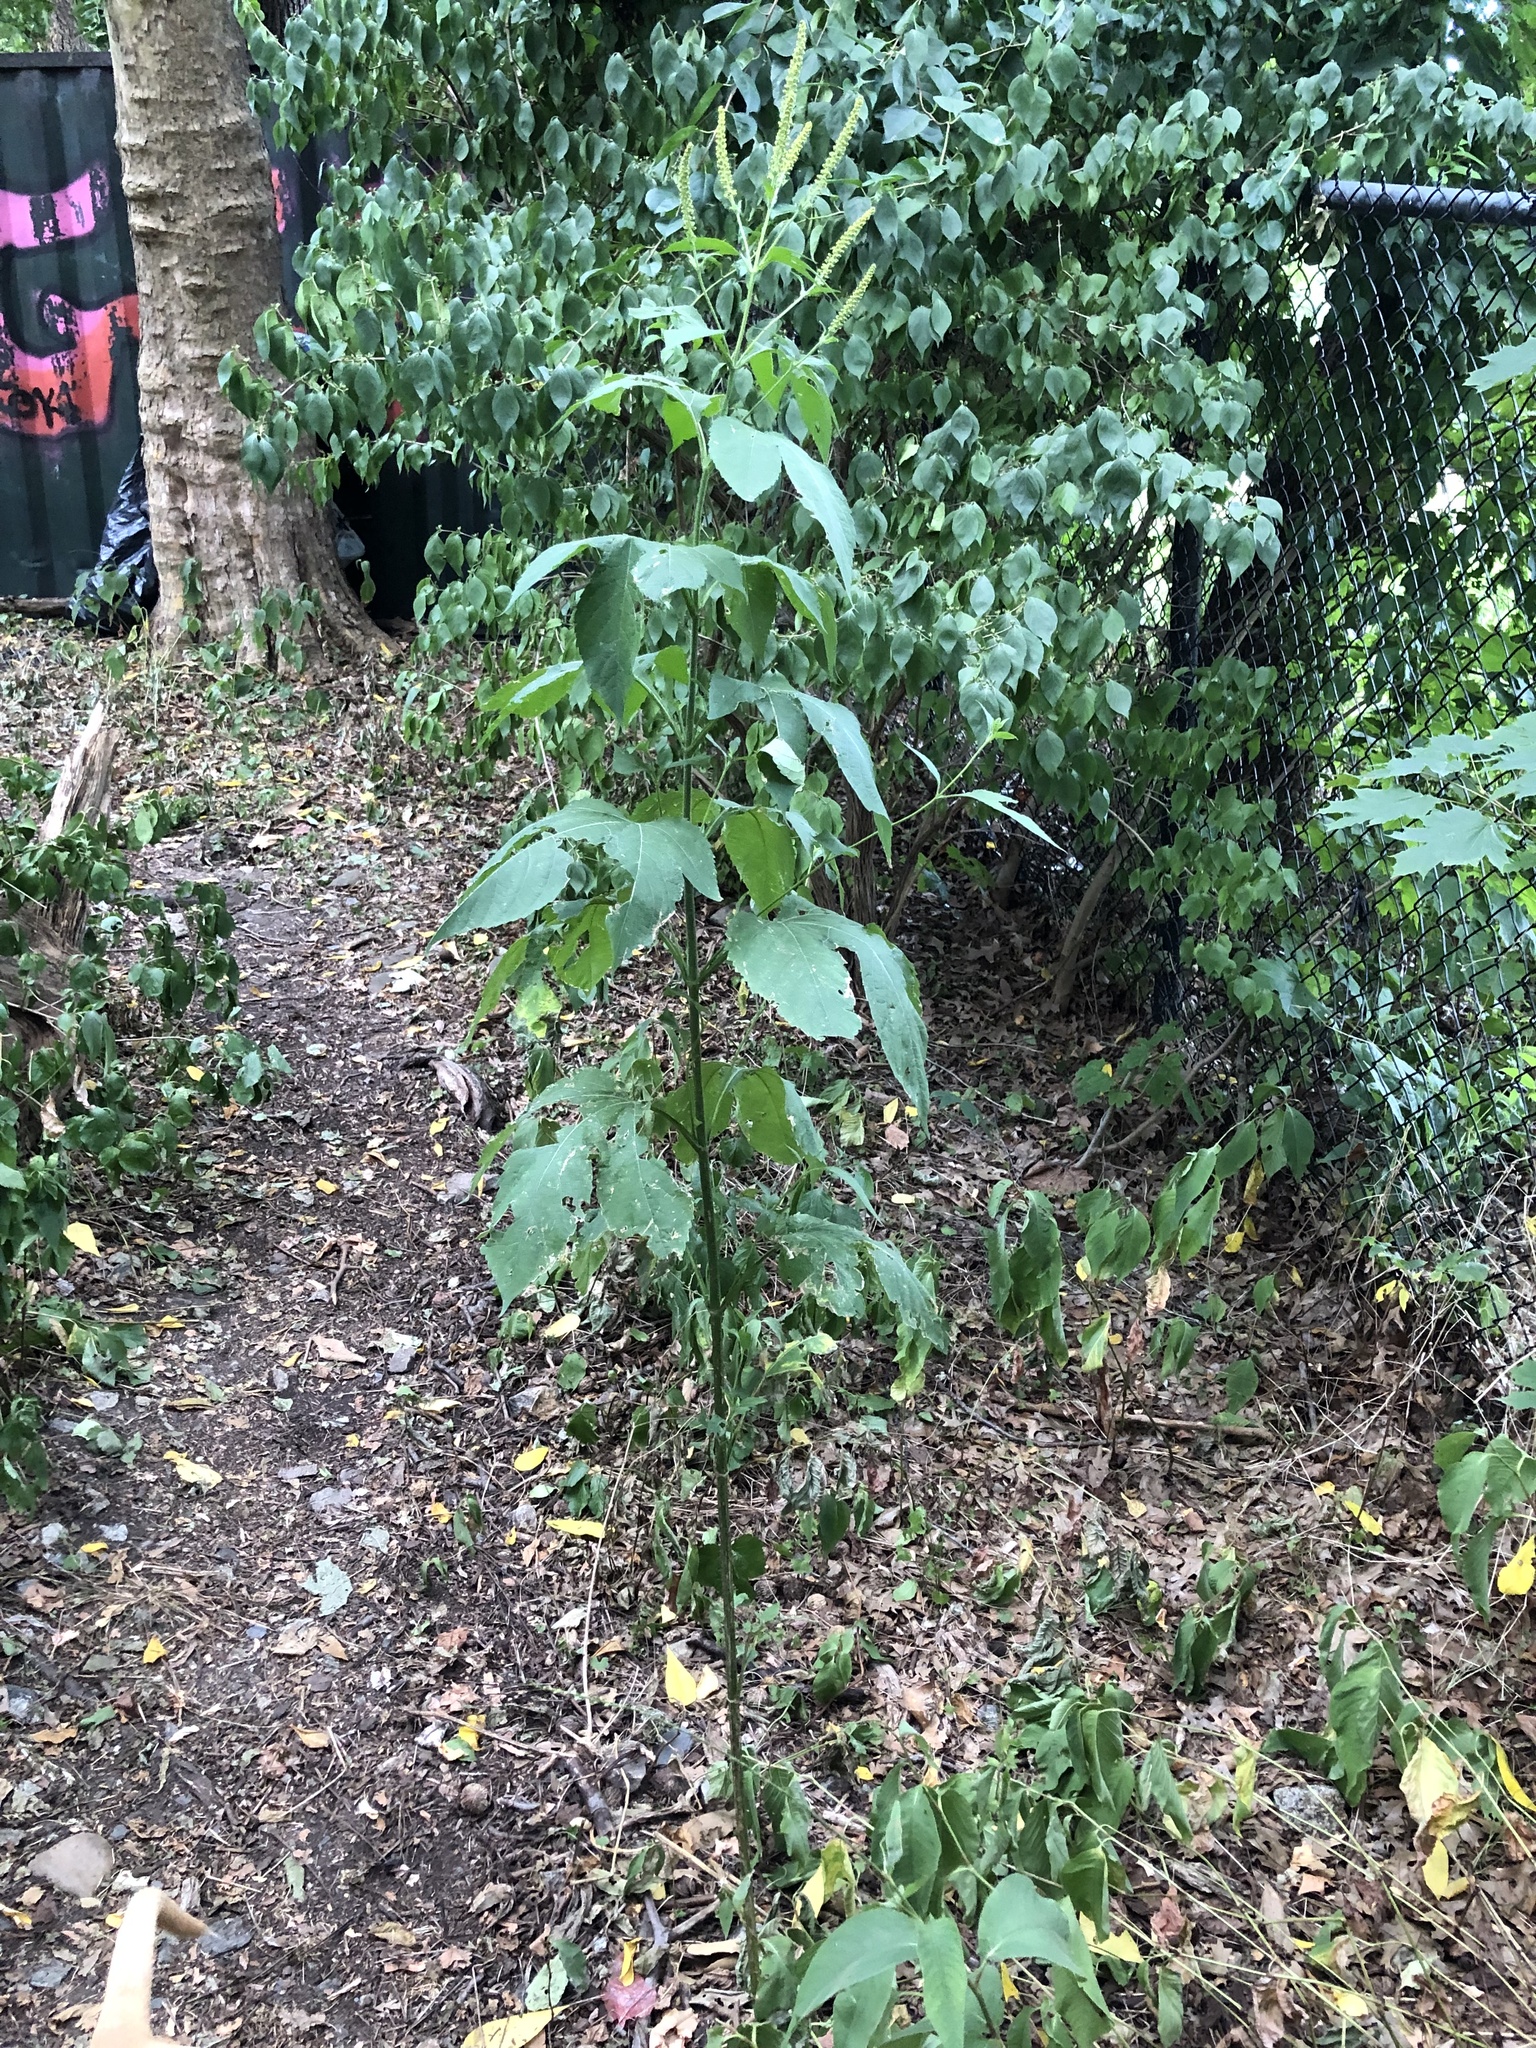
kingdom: Plantae
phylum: Tracheophyta
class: Magnoliopsida
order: Asterales
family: Asteraceae
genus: Ambrosia
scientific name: Ambrosia trifida
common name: Giant ragweed
